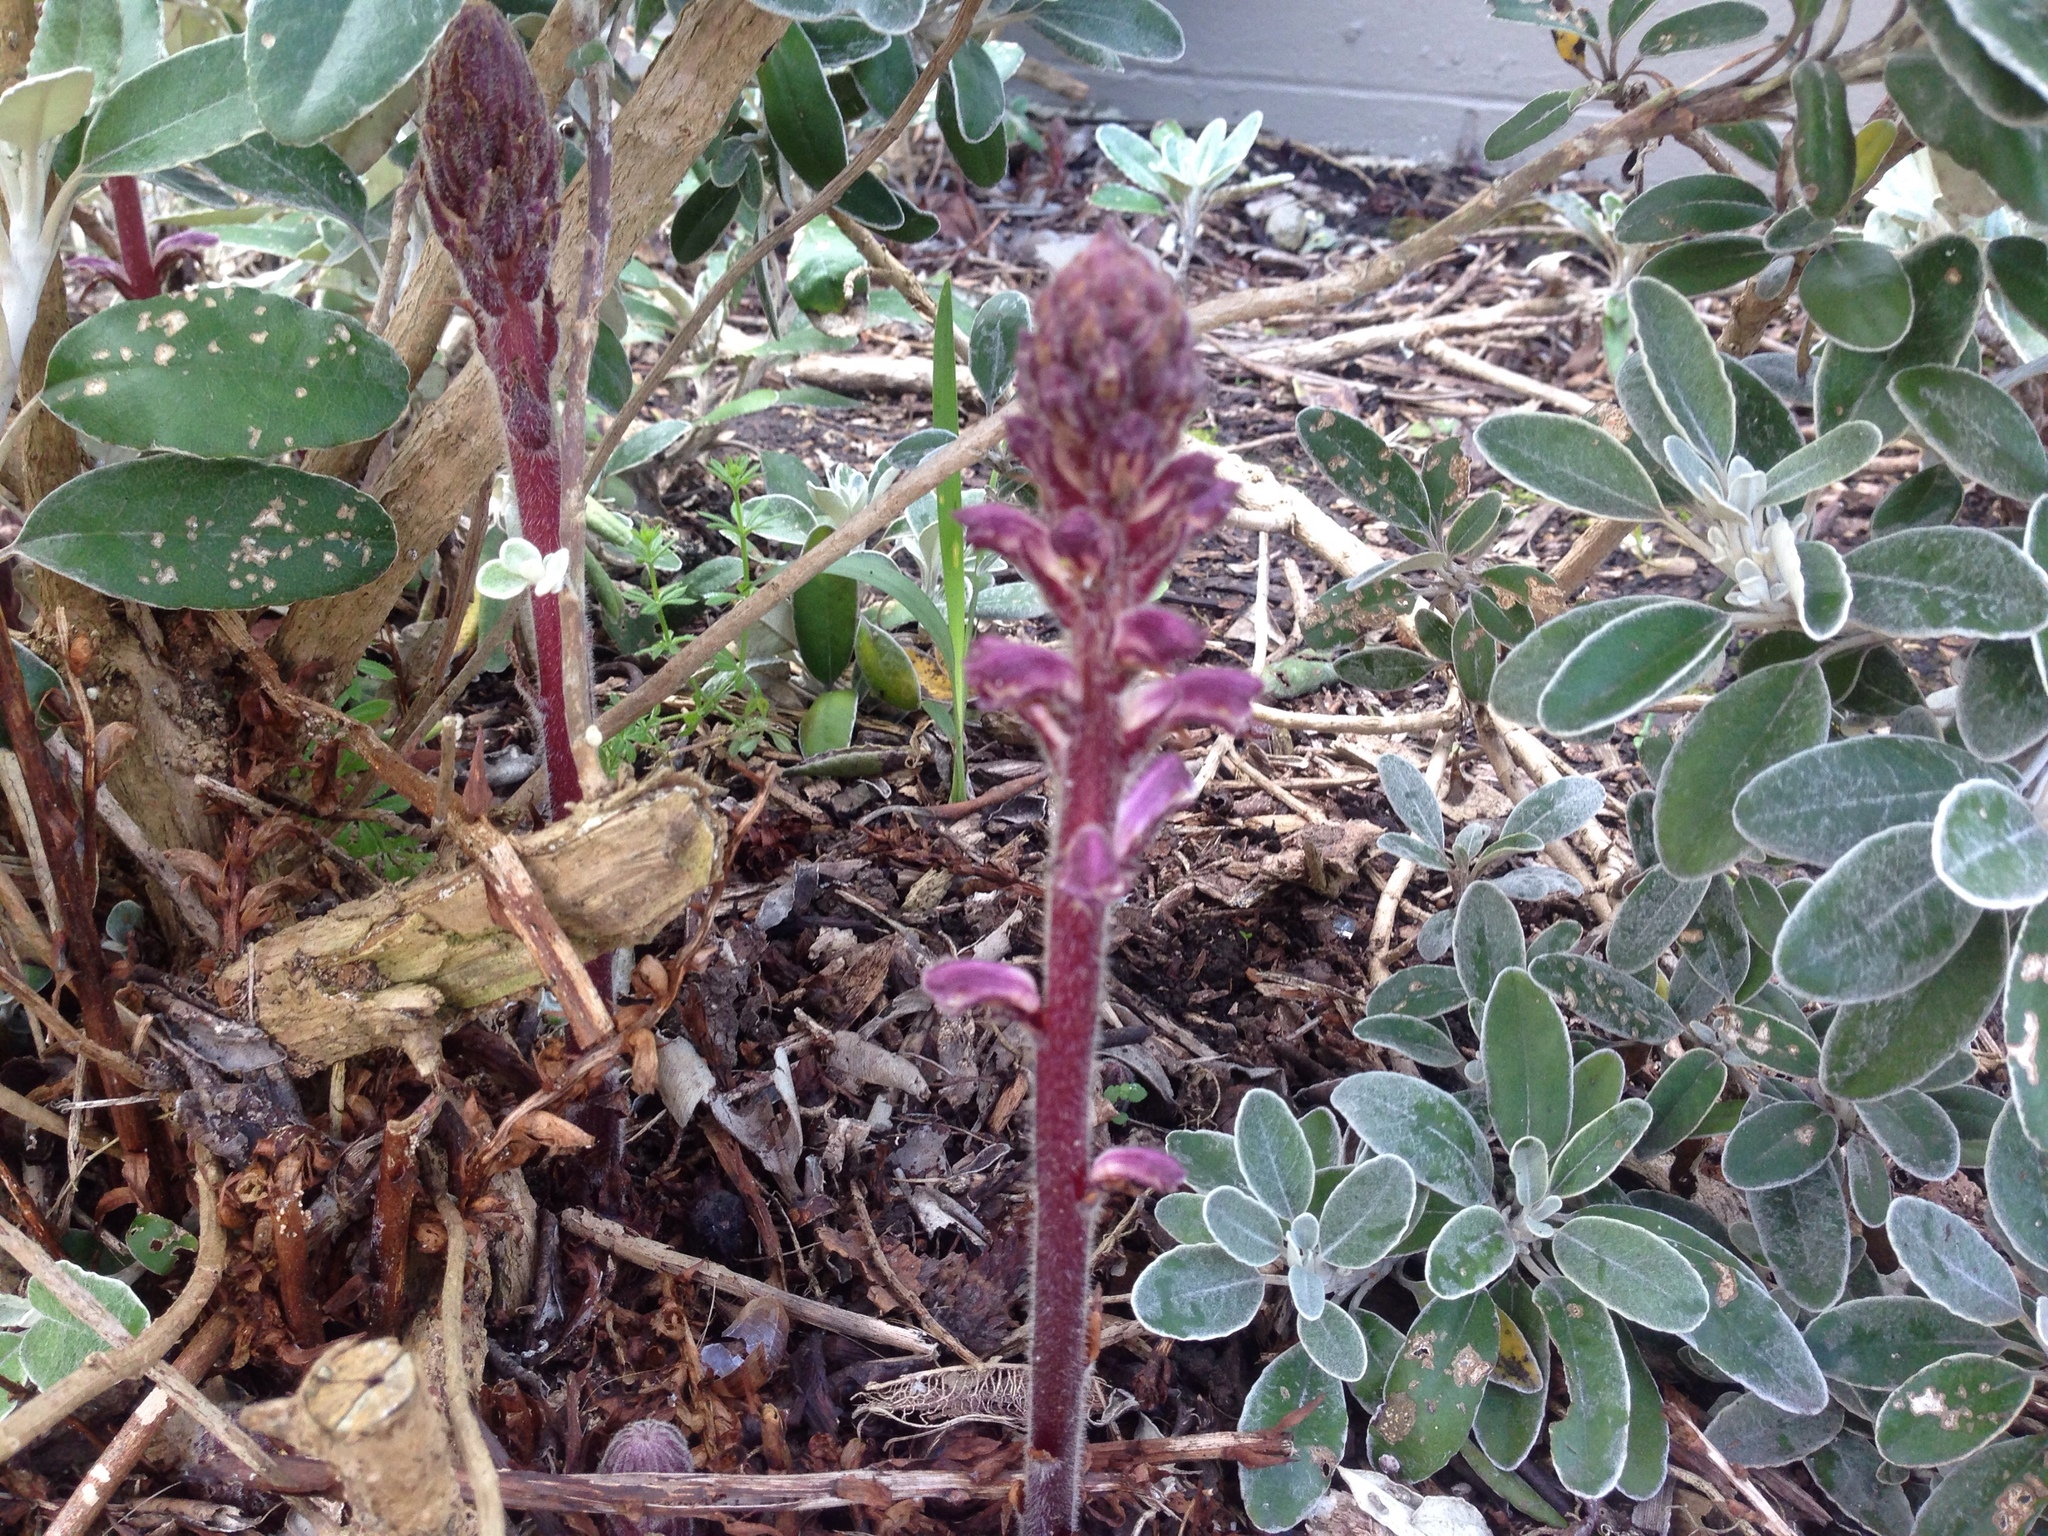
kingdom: Plantae
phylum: Tracheophyta
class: Magnoliopsida
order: Lamiales
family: Orobanchaceae
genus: Orobanche
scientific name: Orobanche minor
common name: Common broomrape
